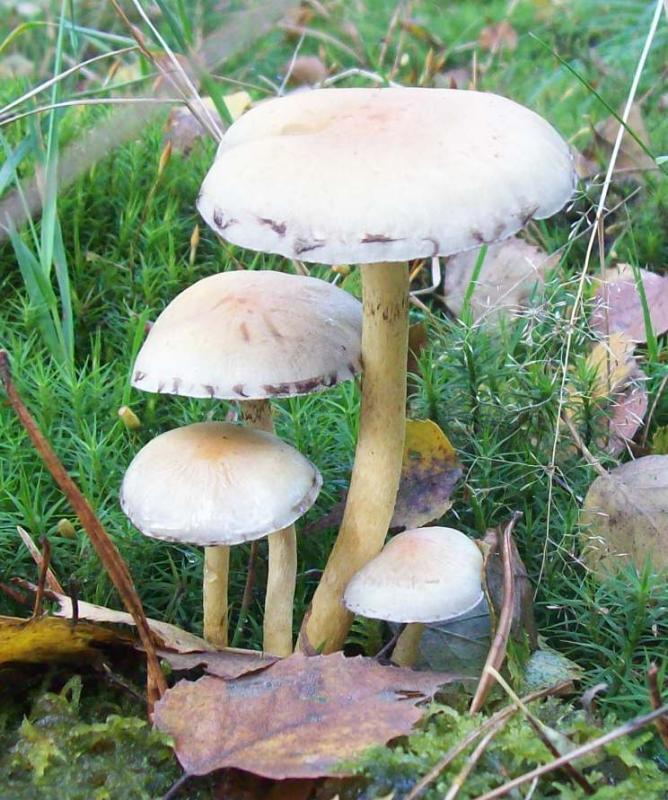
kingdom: Fungi
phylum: Basidiomycota
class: Agaricomycetes
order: Agaricales
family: Strophariaceae
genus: Hypholoma
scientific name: Hypholoma fasciculare
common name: Sulphur tuft
